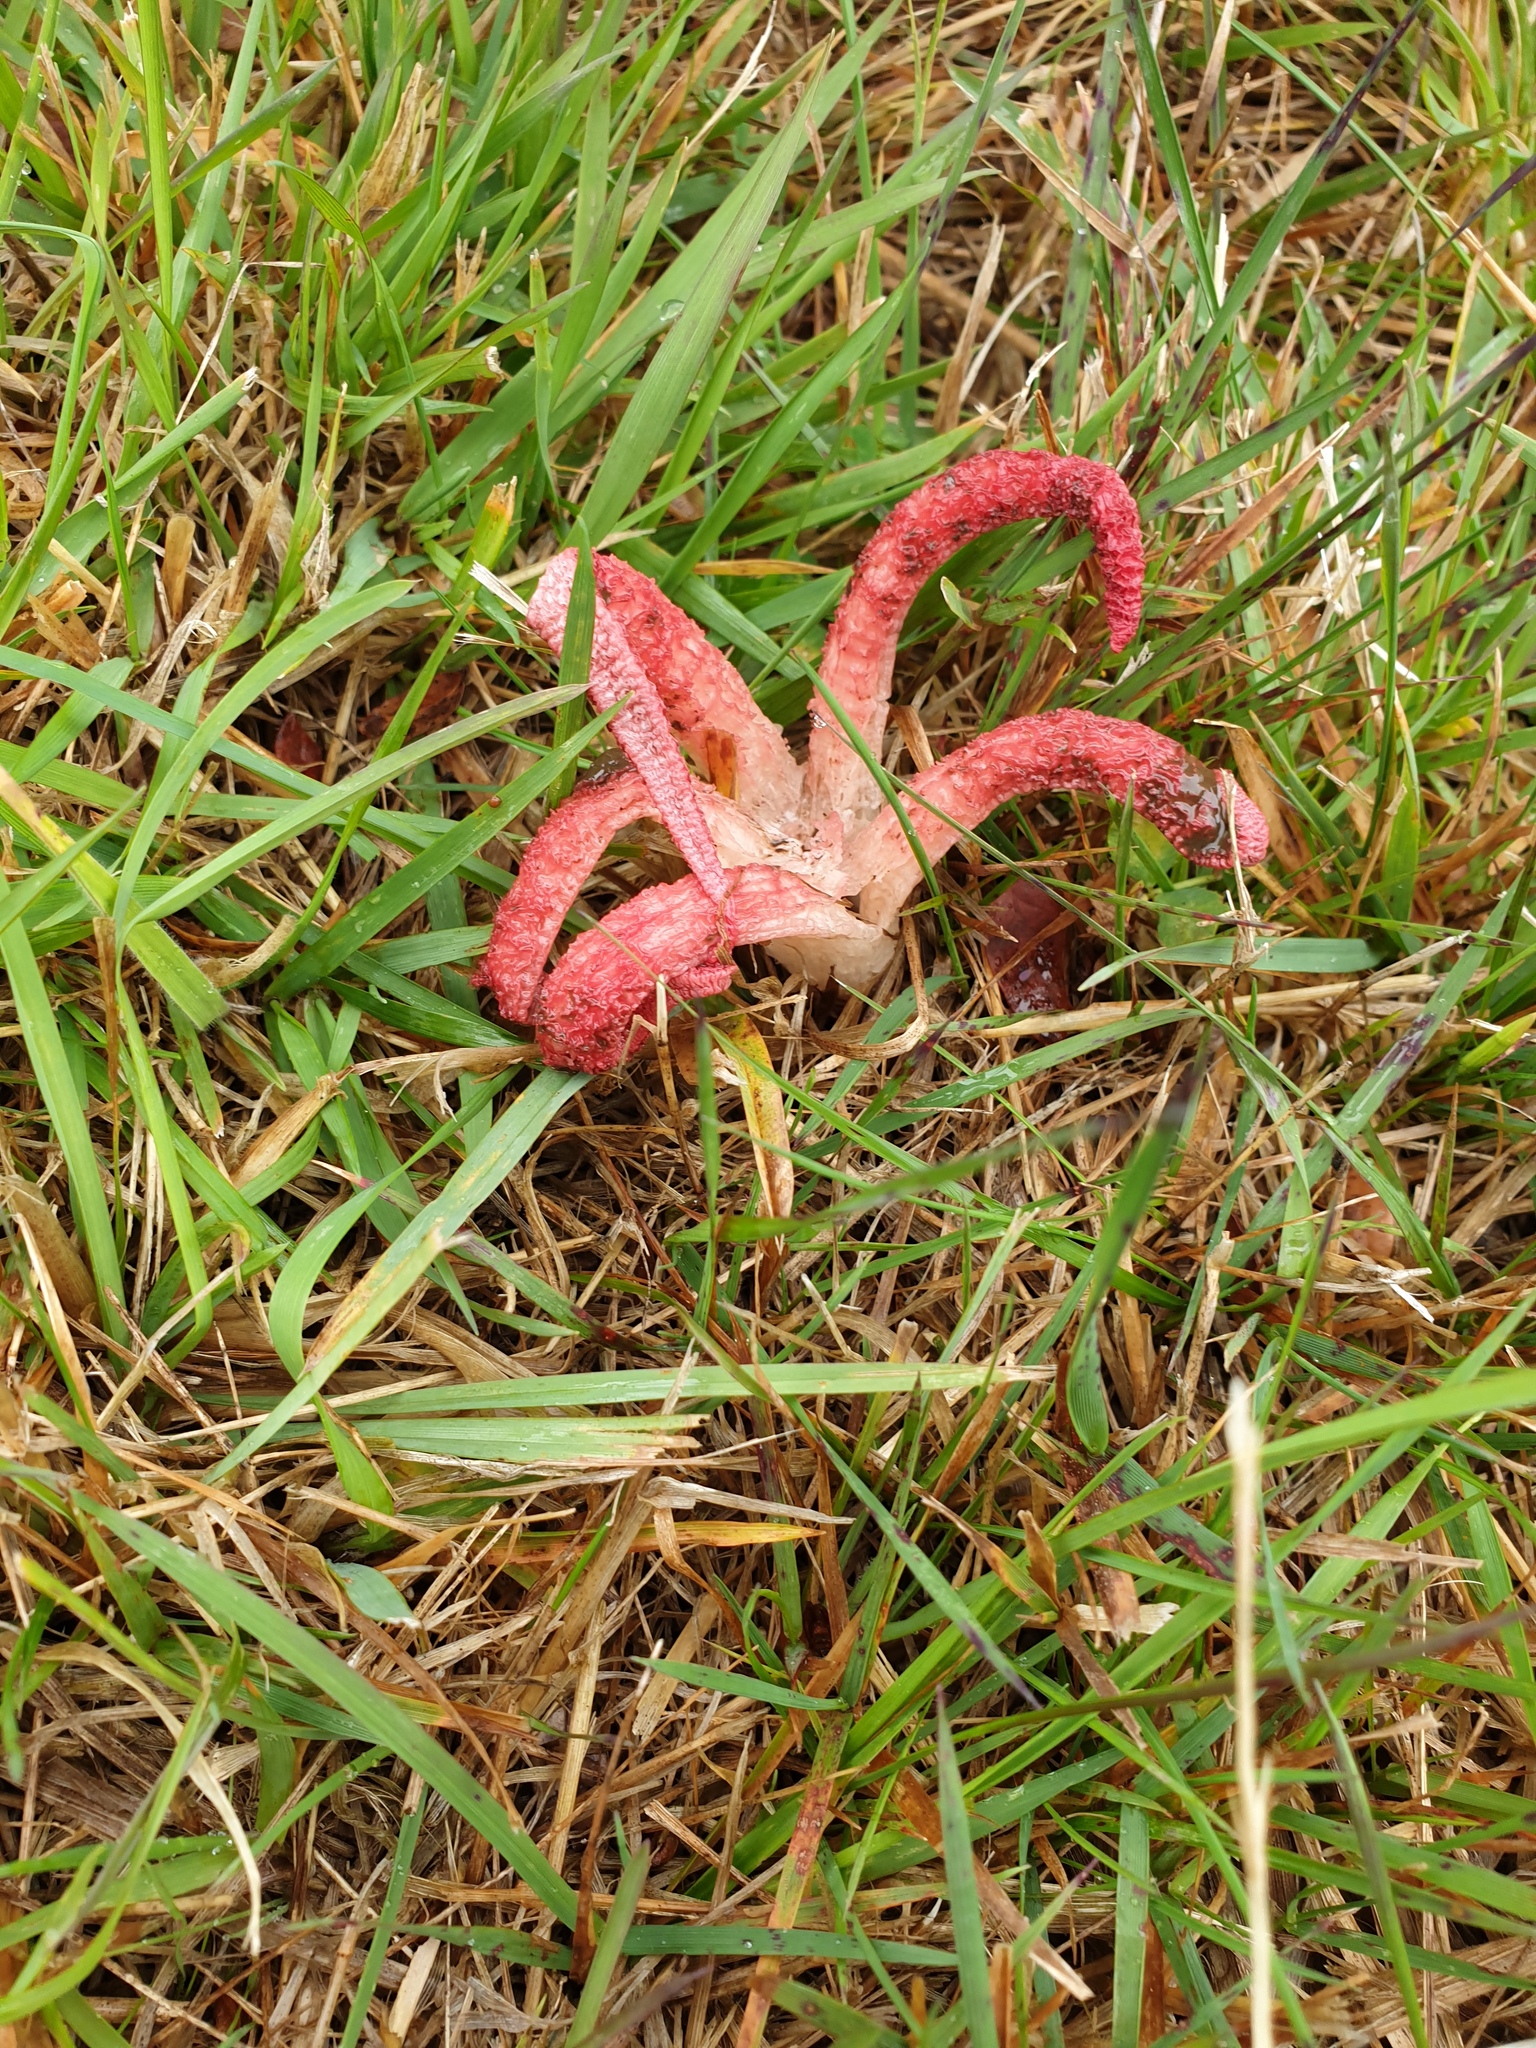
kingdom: Fungi
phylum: Basidiomycota
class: Agaricomycetes
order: Phallales
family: Phallaceae
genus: Clathrus
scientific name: Clathrus archeri
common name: Devil's fingers
